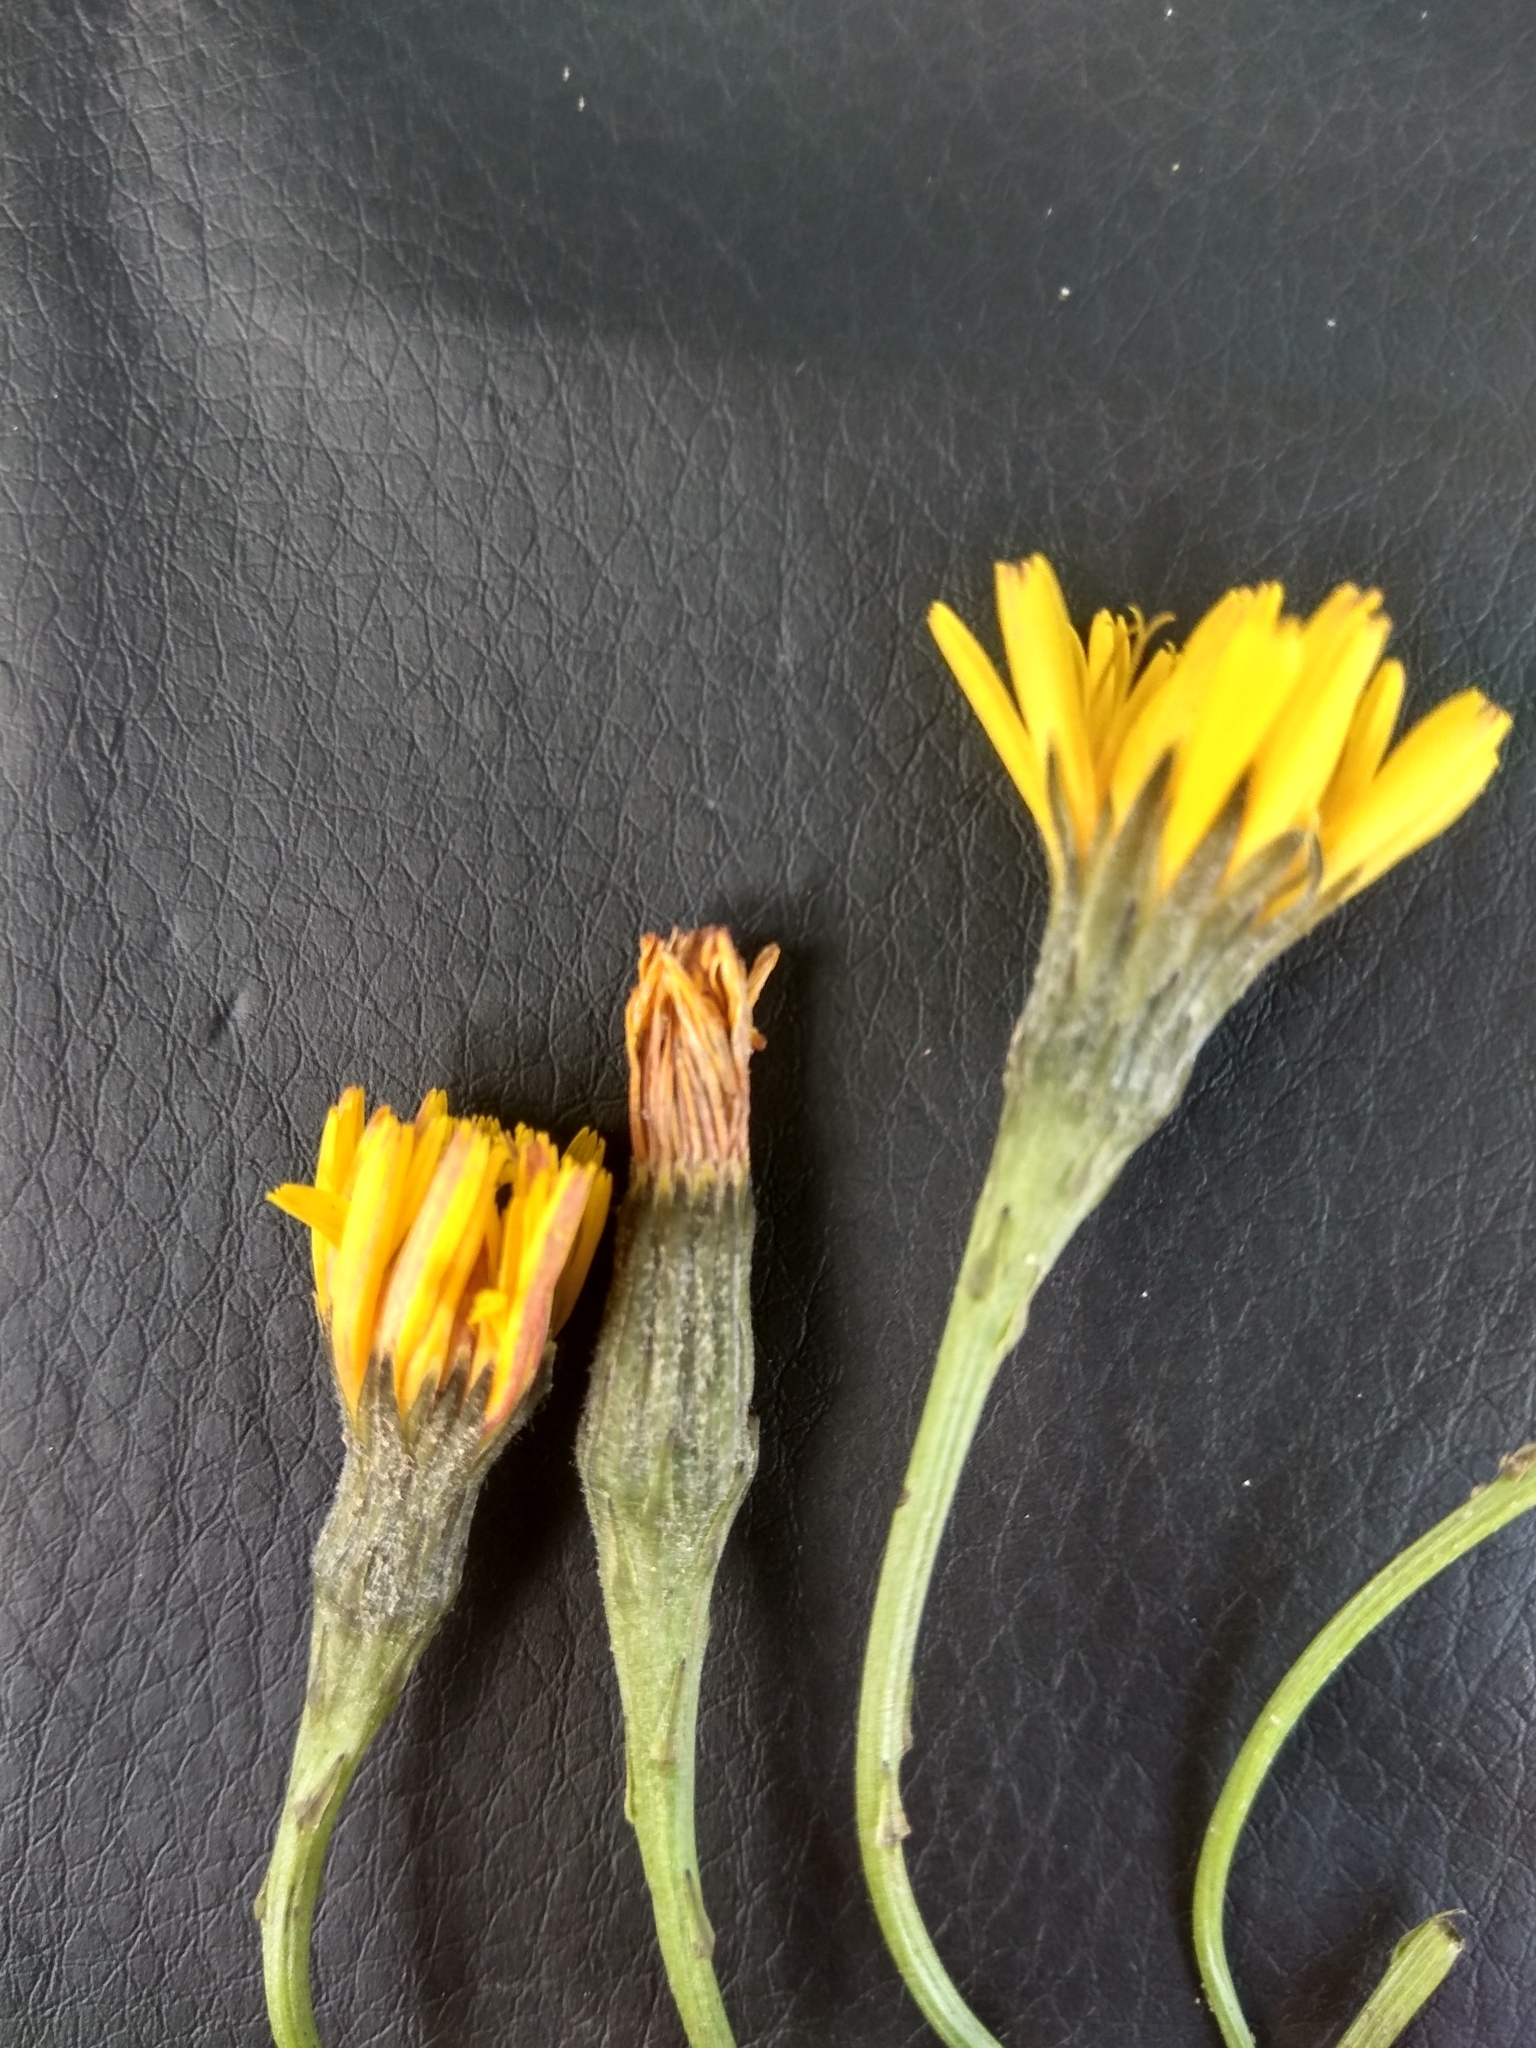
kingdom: Plantae
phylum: Tracheophyta
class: Magnoliopsida
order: Asterales
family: Asteraceae
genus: Scorzoneroides
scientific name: Scorzoneroides autumnalis
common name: Autumn hawkbit
